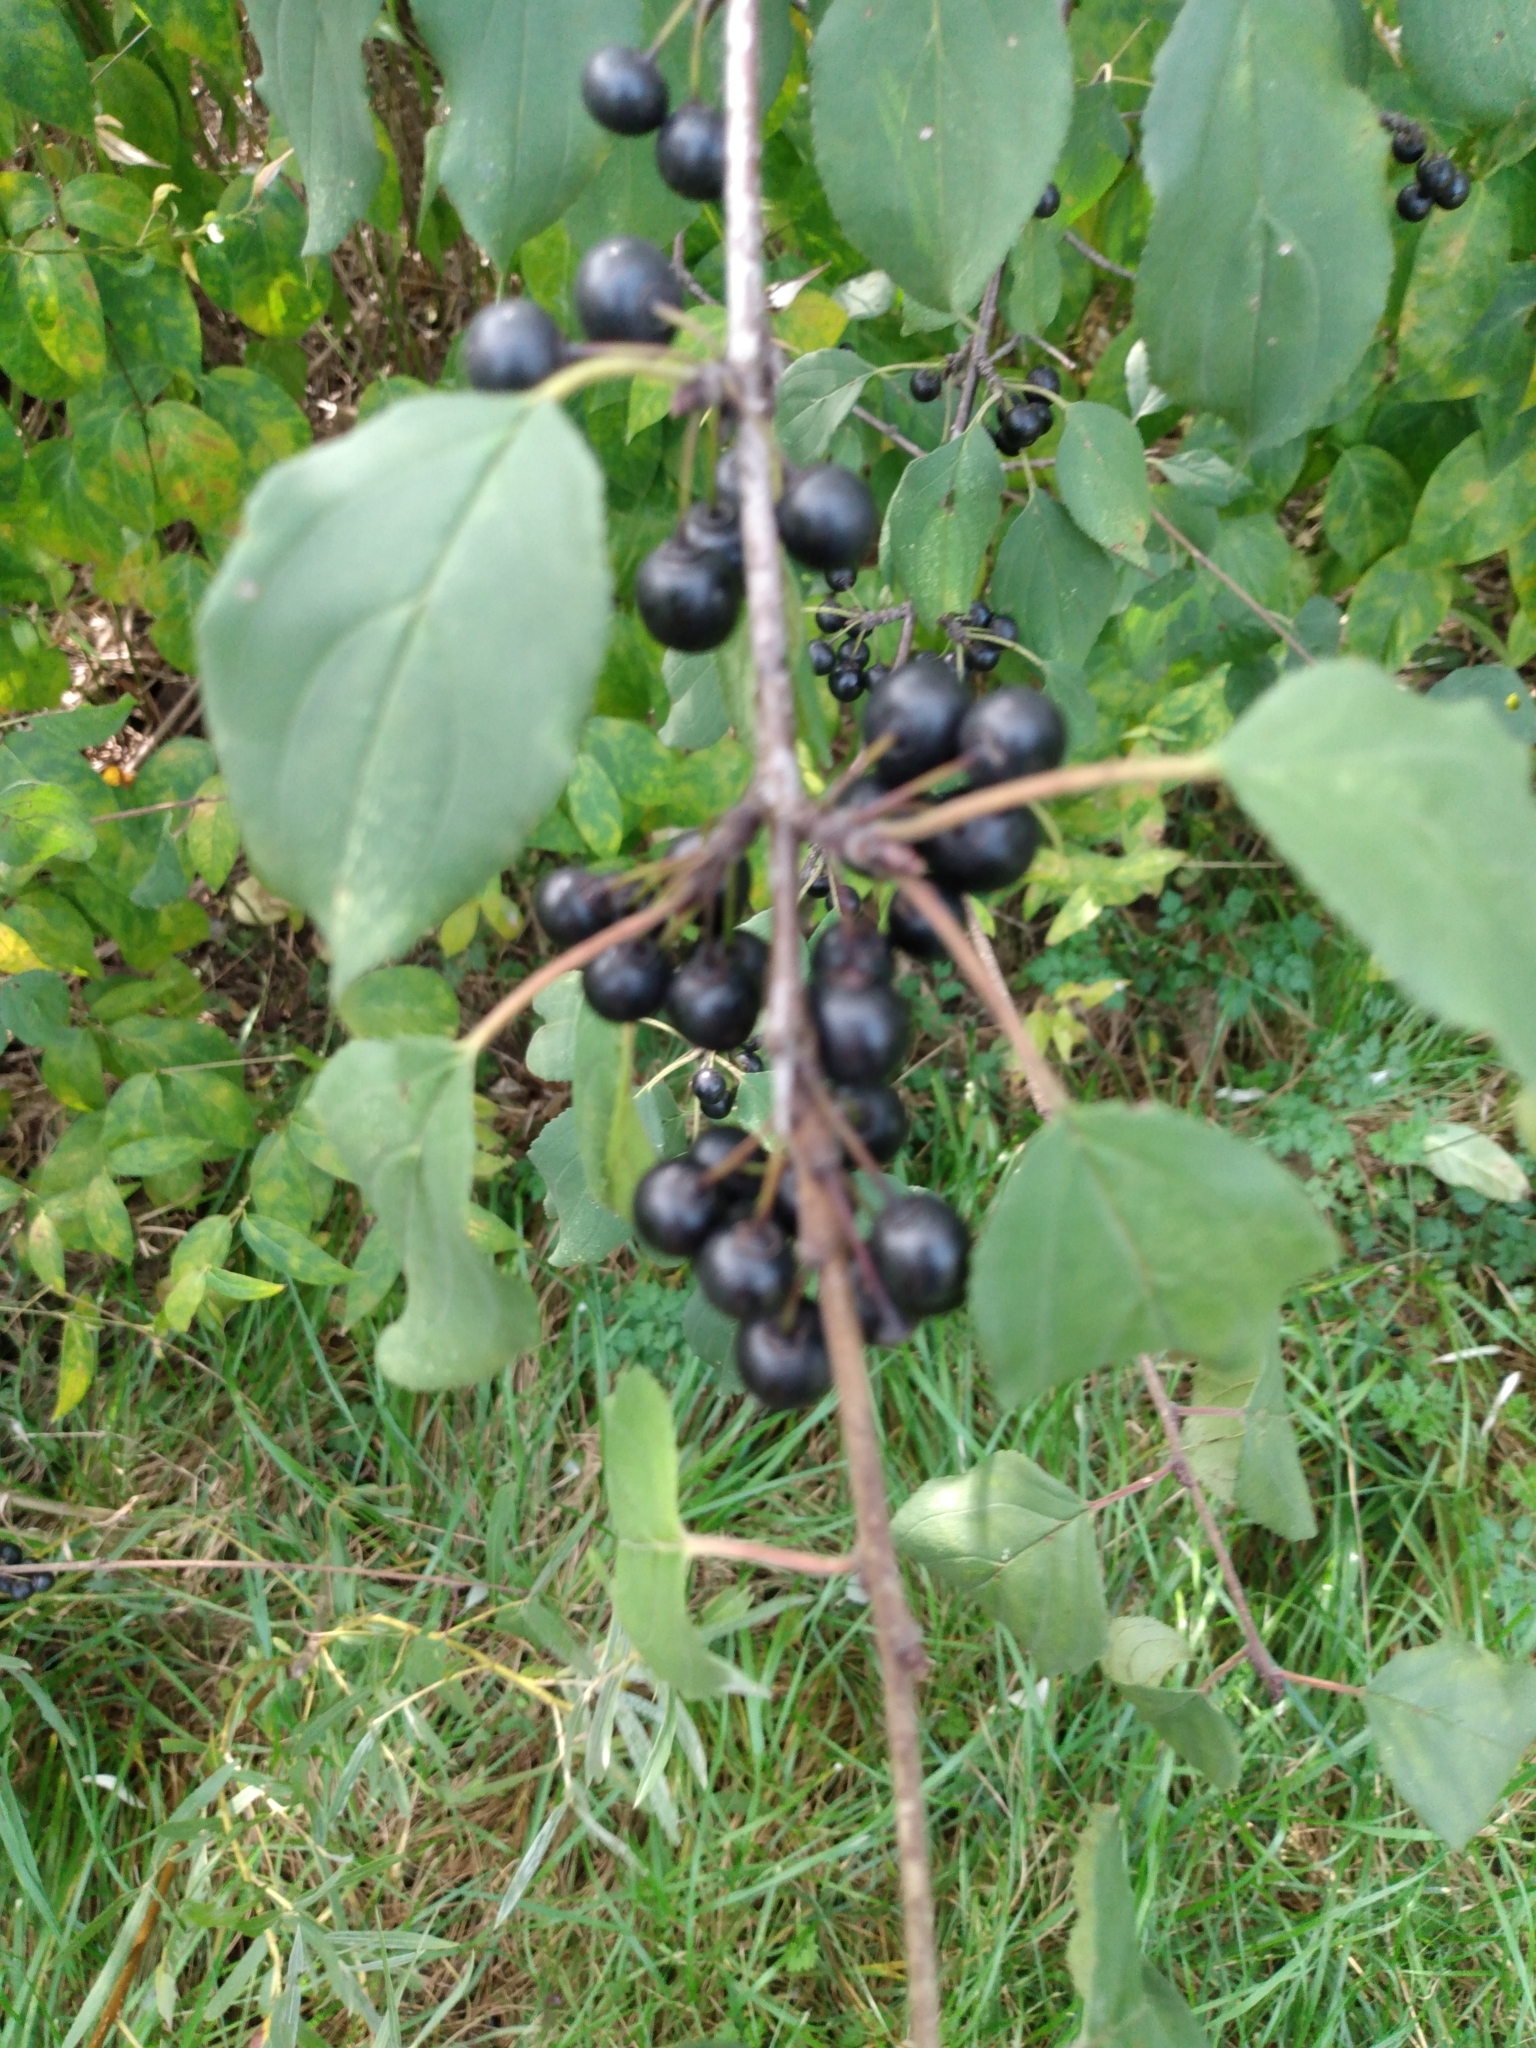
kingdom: Plantae
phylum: Tracheophyta
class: Magnoliopsida
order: Rosales
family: Rhamnaceae
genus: Rhamnus
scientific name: Rhamnus cathartica
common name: Common buckthorn
